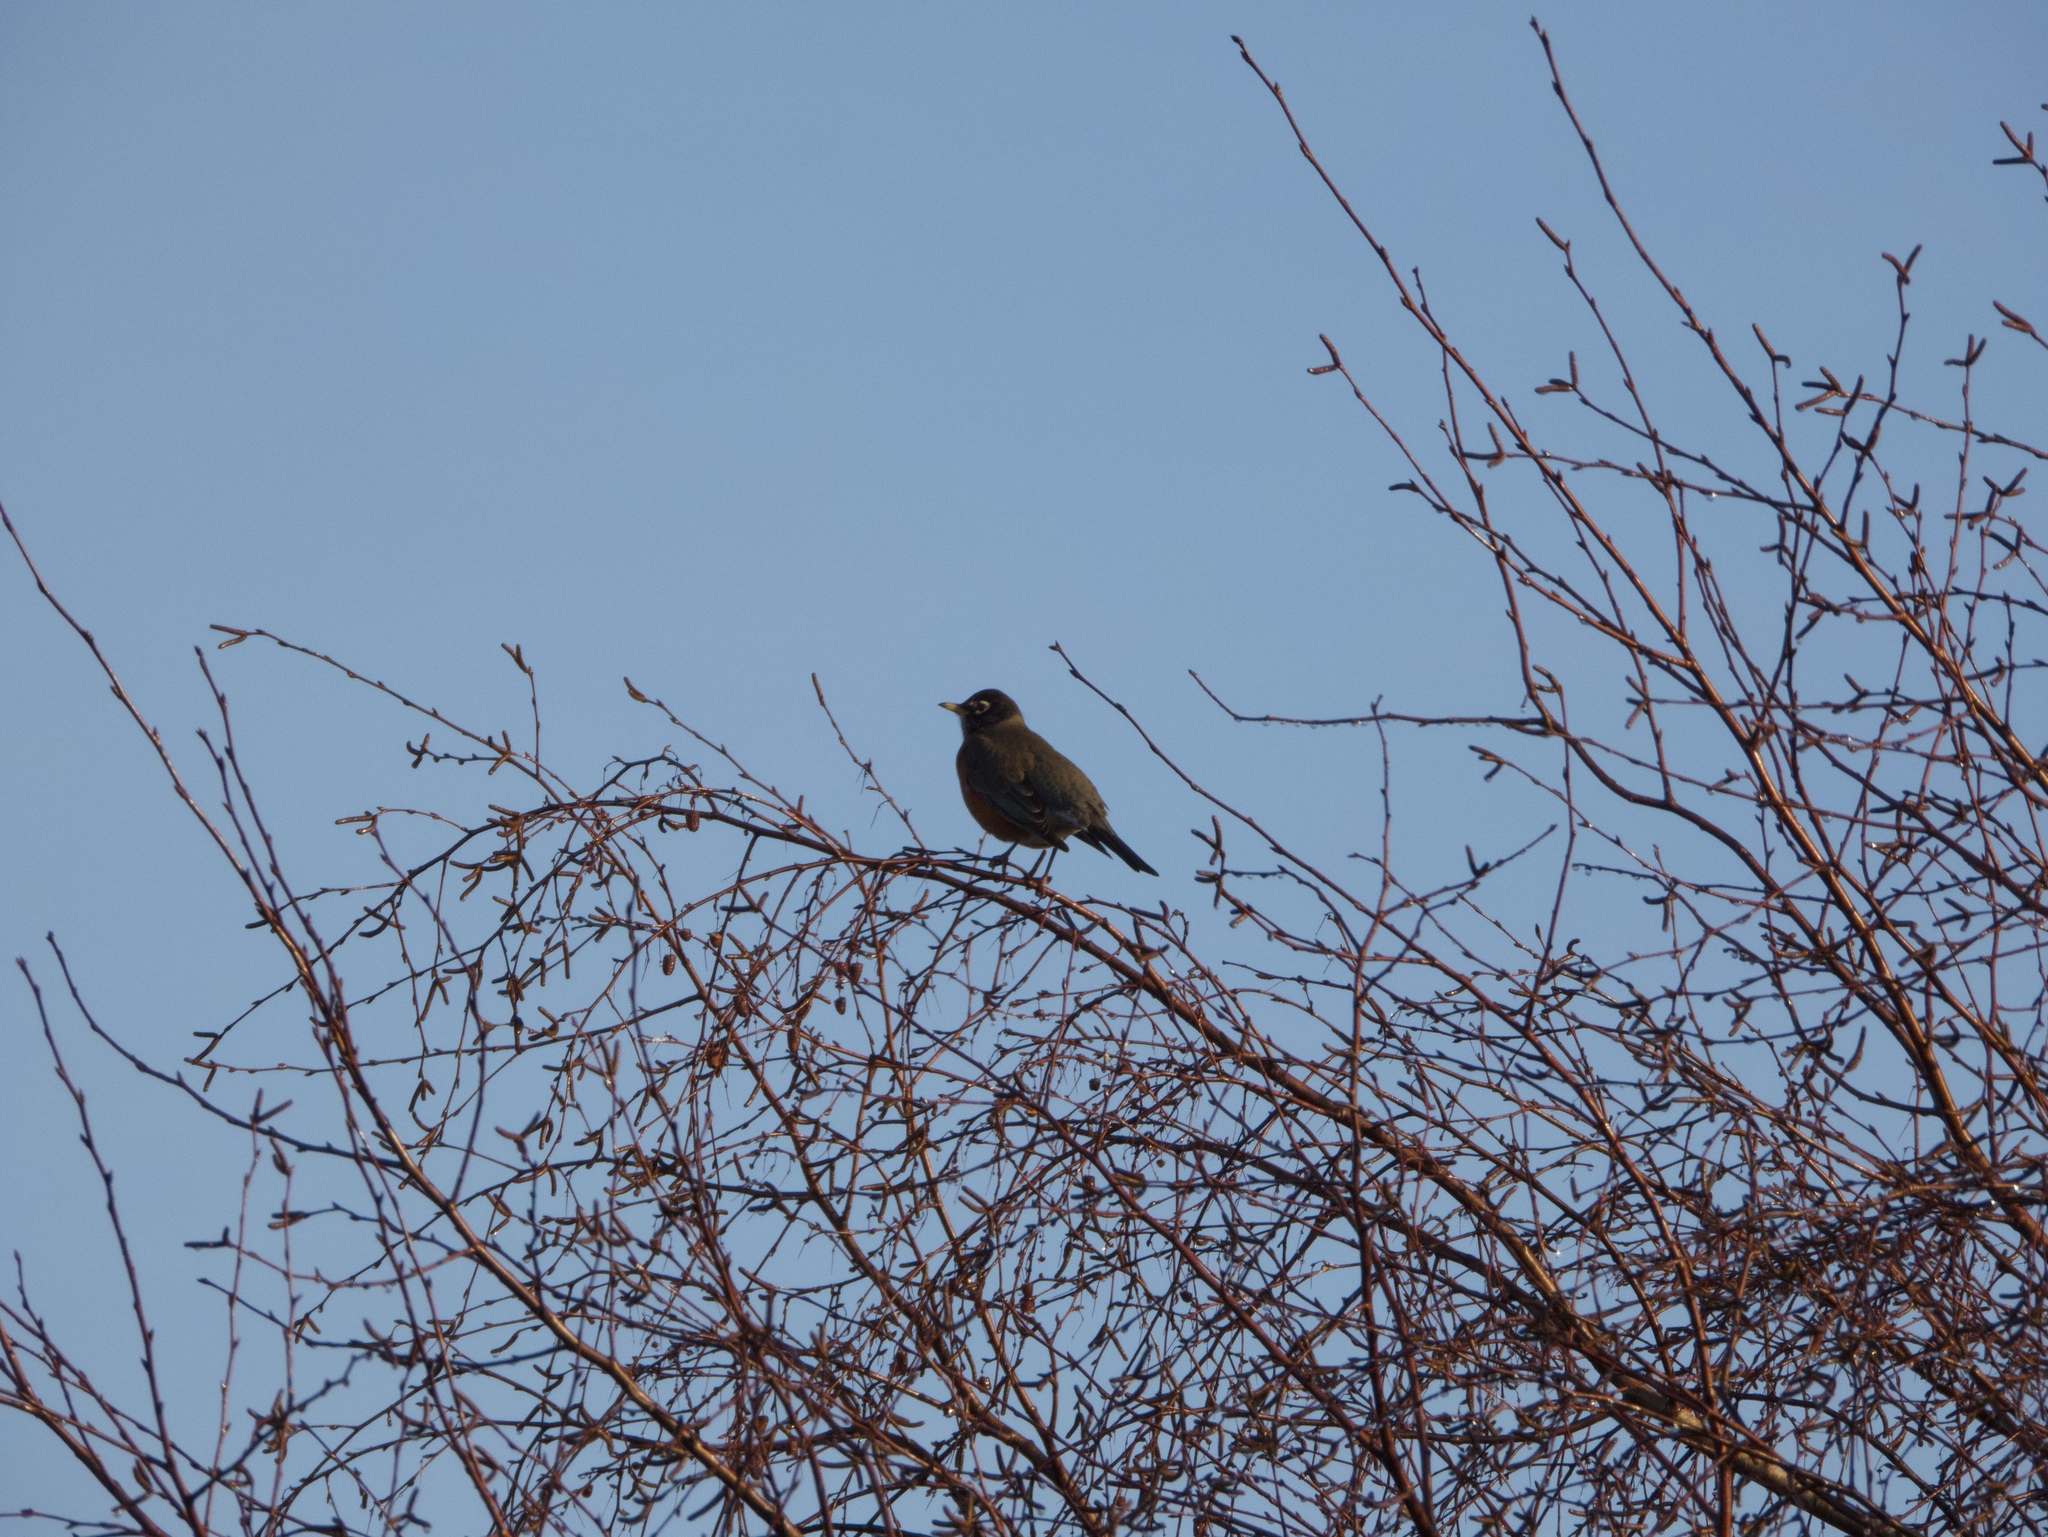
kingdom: Animalia
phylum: Chordata
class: Aves
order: Passeriformes
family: Turdidae
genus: Turdus
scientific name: Turdus migratorius
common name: American robin
